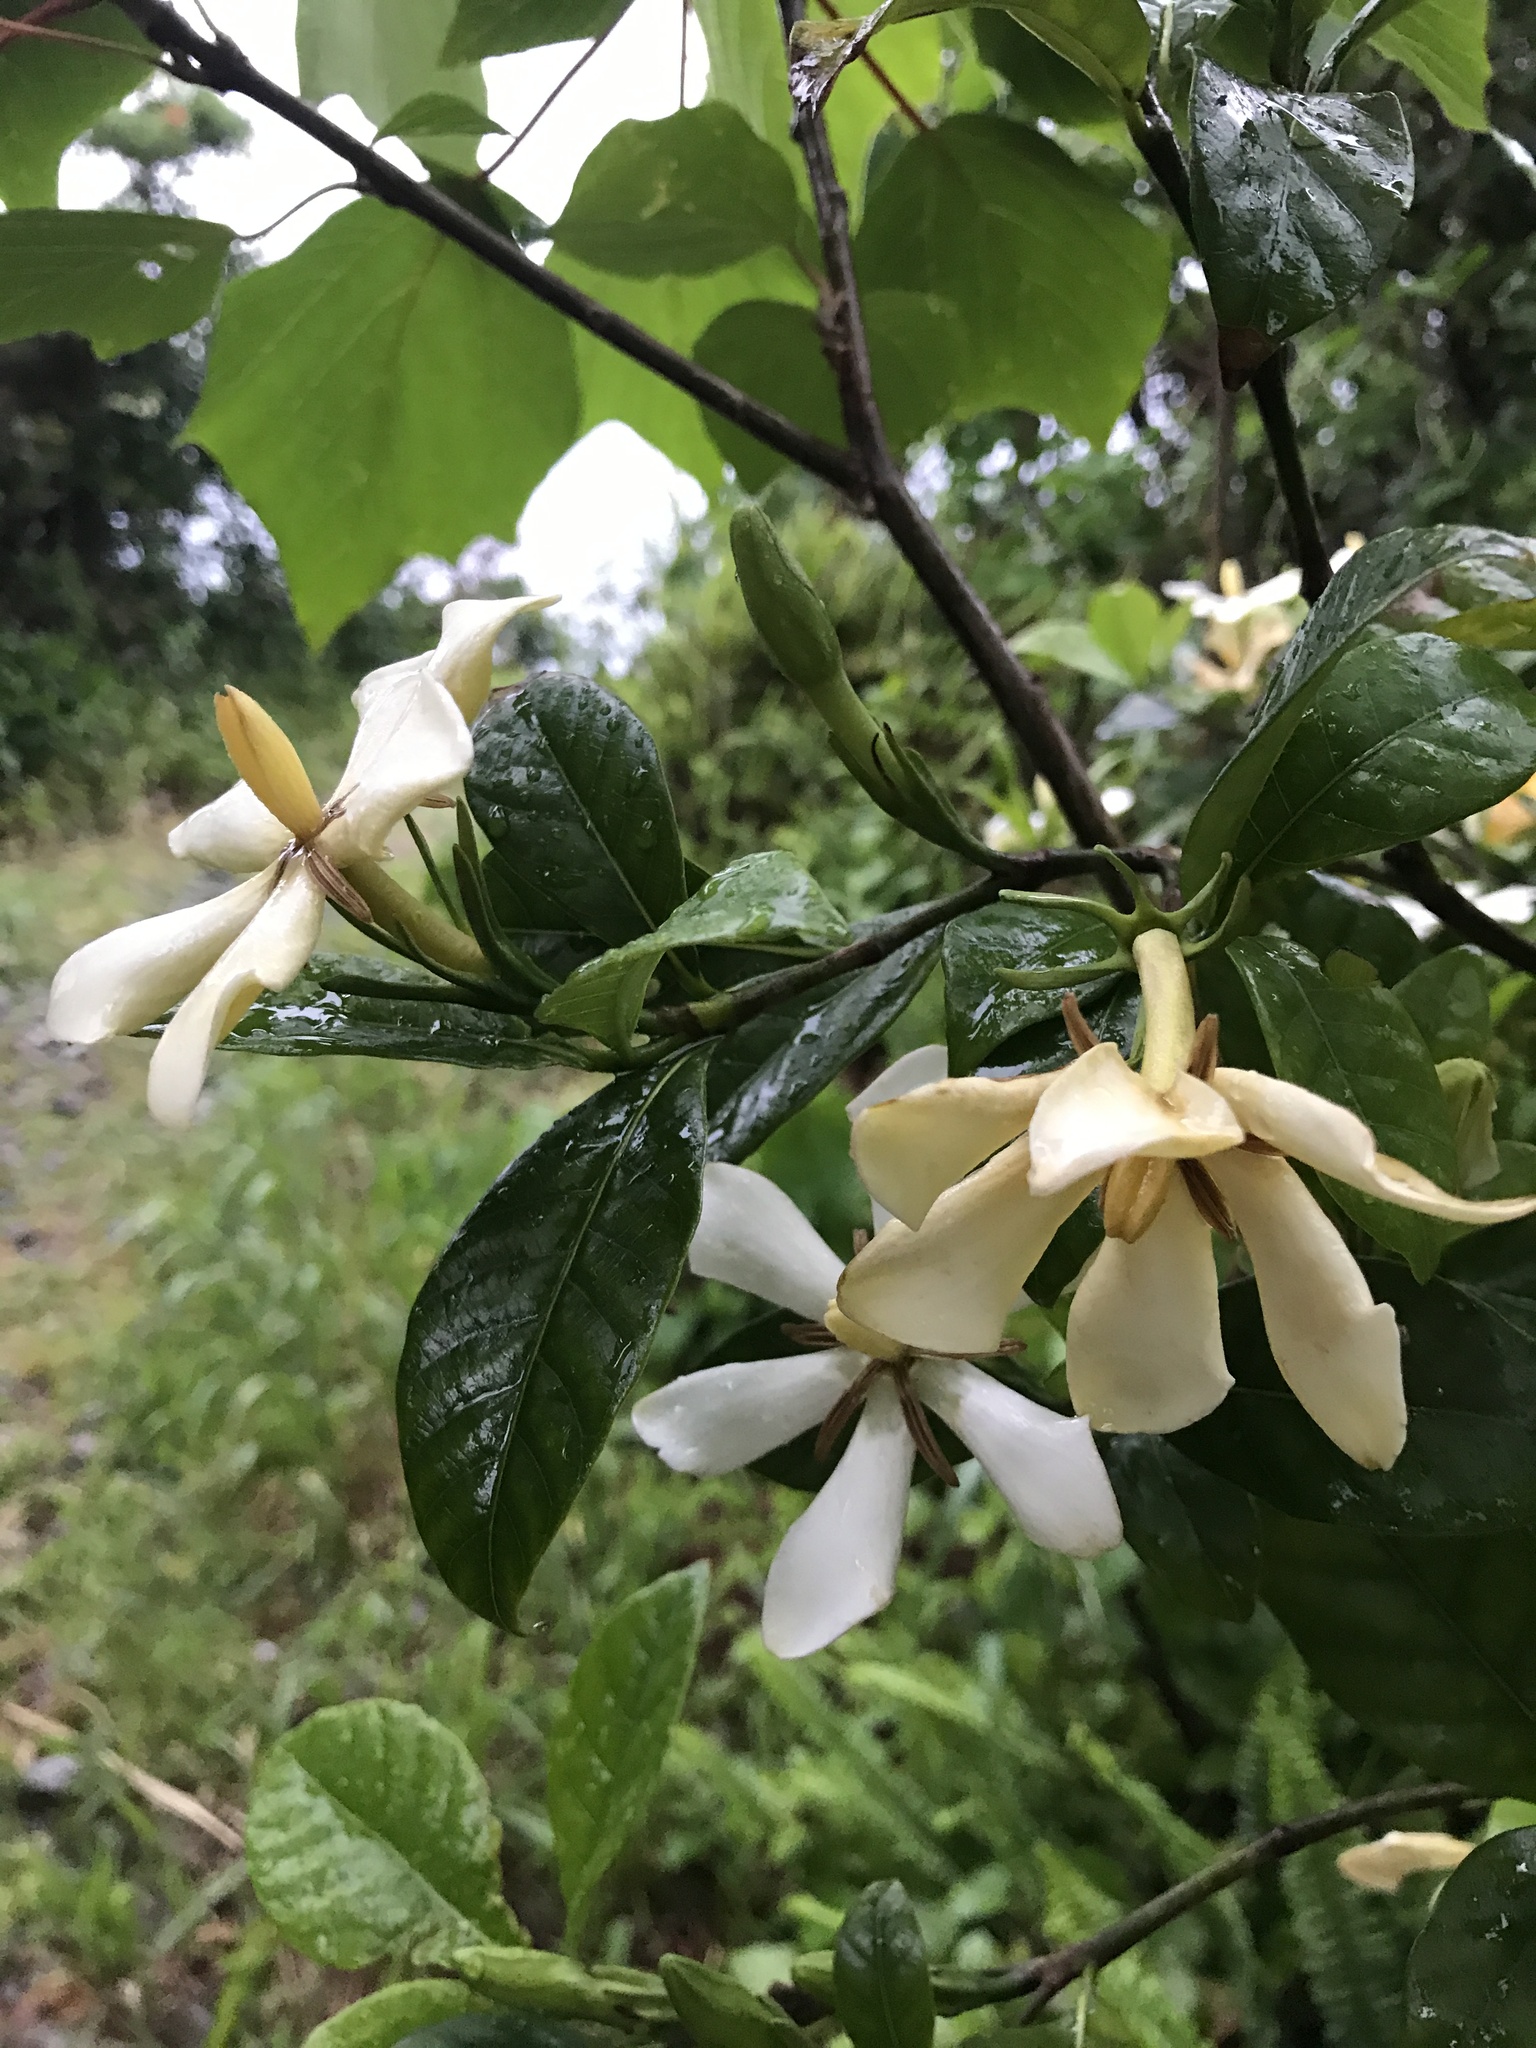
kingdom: Plantae
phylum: Tracheophyta
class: Magnoliopsida
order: Gentianales
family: Rubiaceae
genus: Gardenia
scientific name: Gardenia jasminoides
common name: Cape-jasmine
